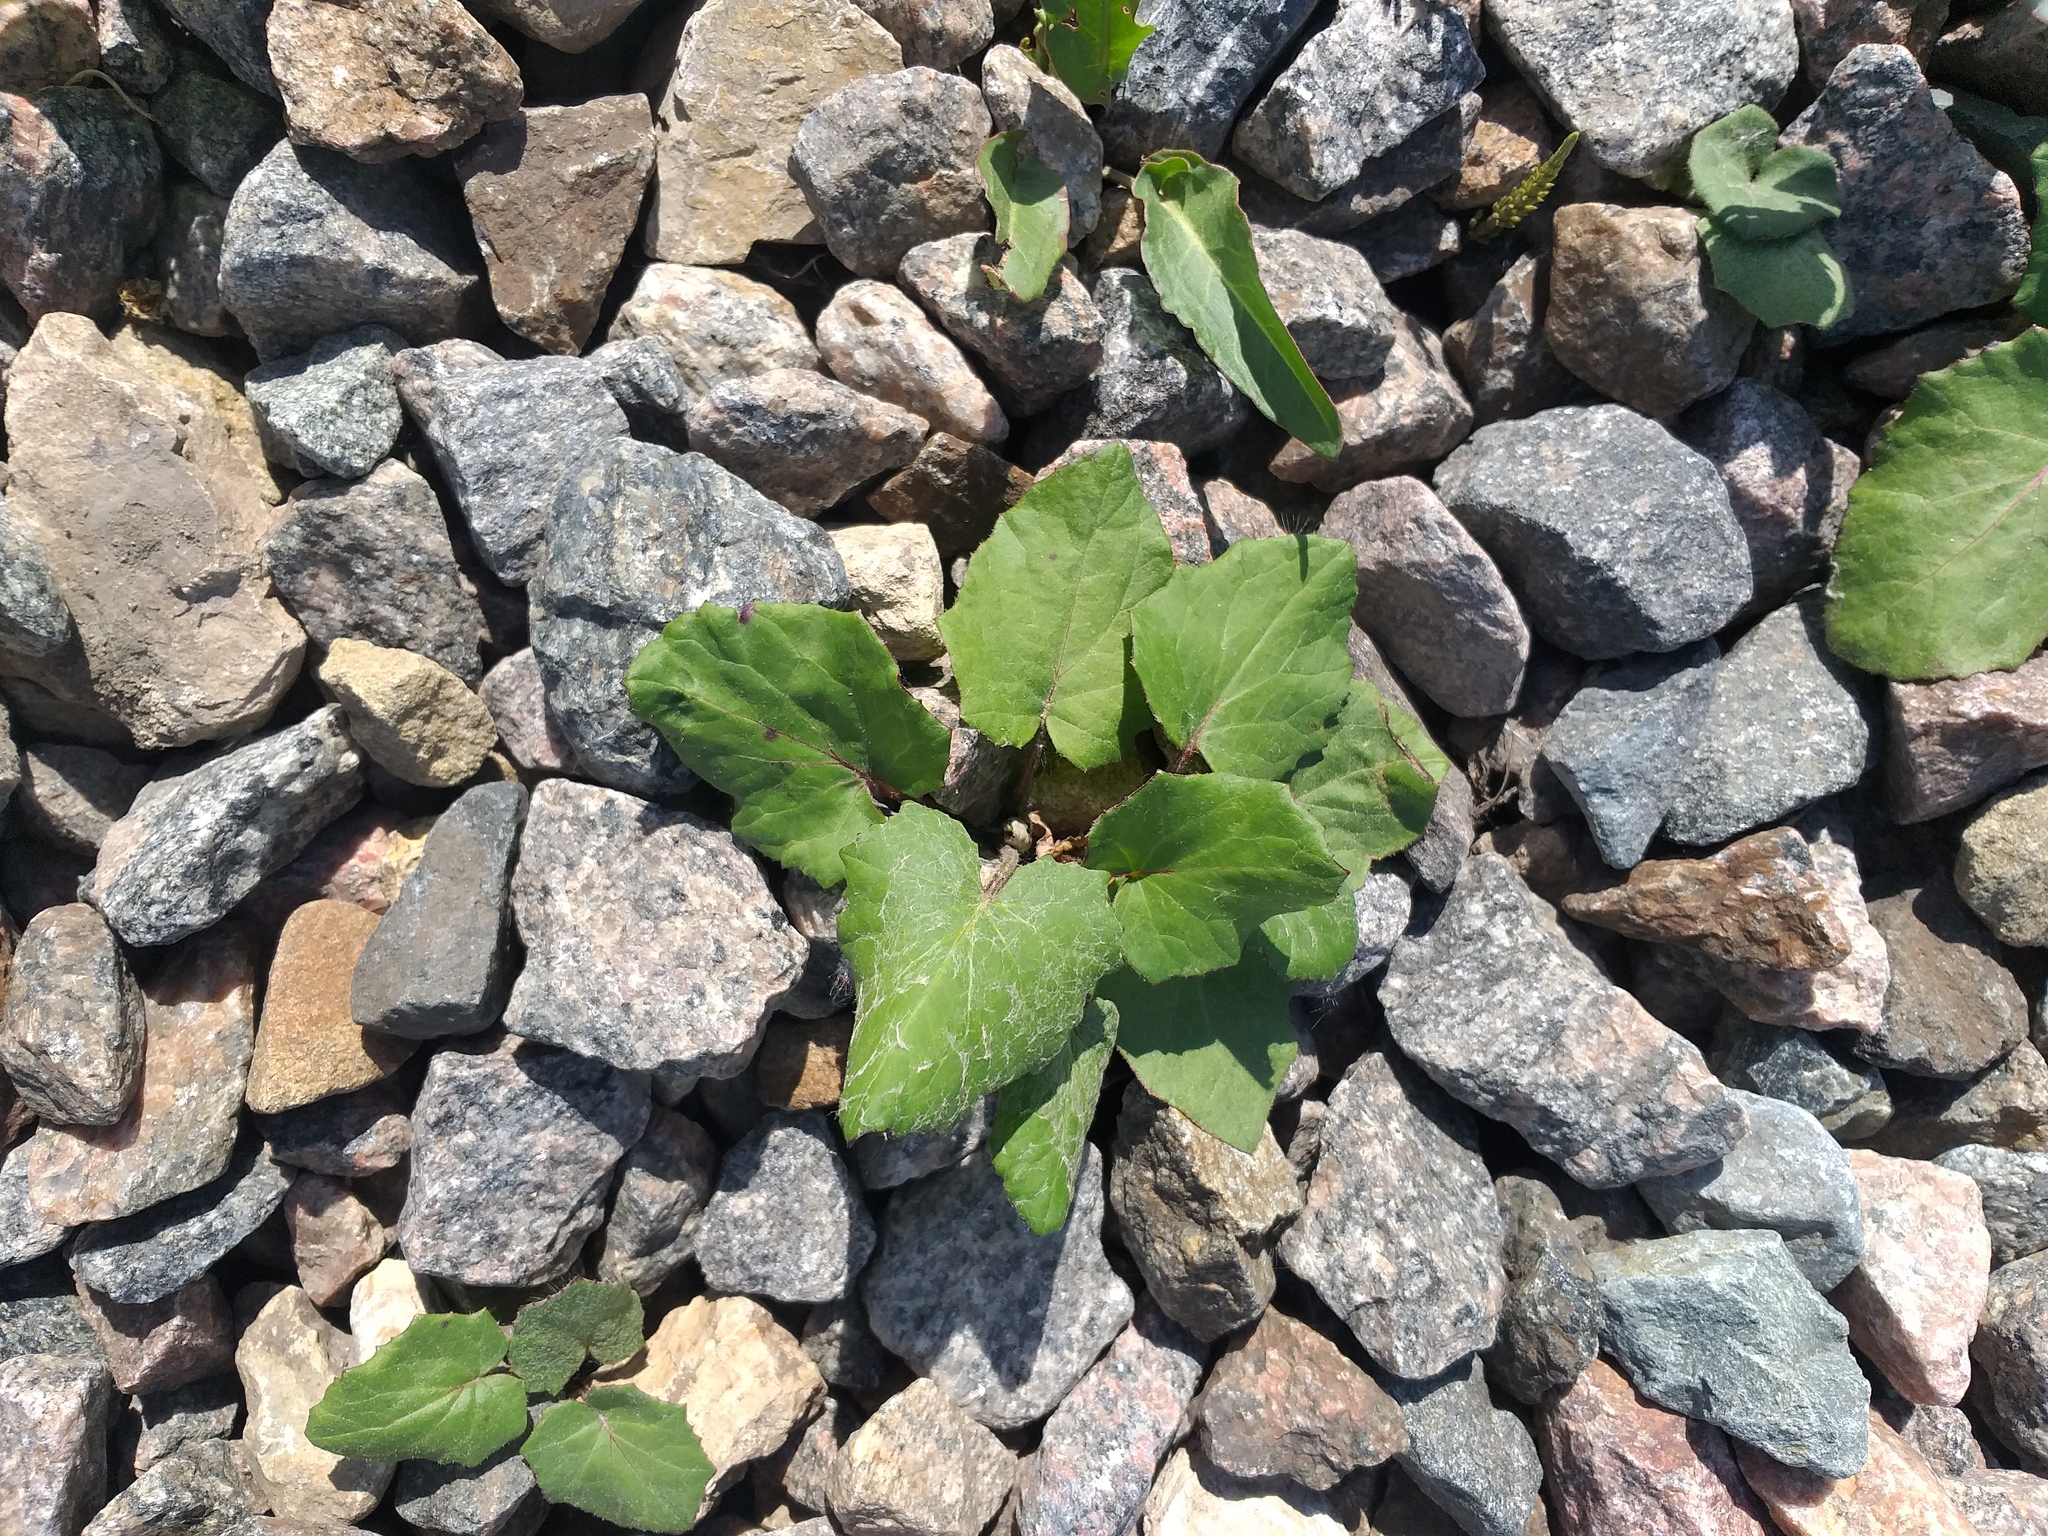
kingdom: Plantae
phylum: Tracheophyta
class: Magnoliopsida
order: Asterales
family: Asteraceae
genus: Tussilago
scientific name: Tussilago farfara
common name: Coltsfoot
